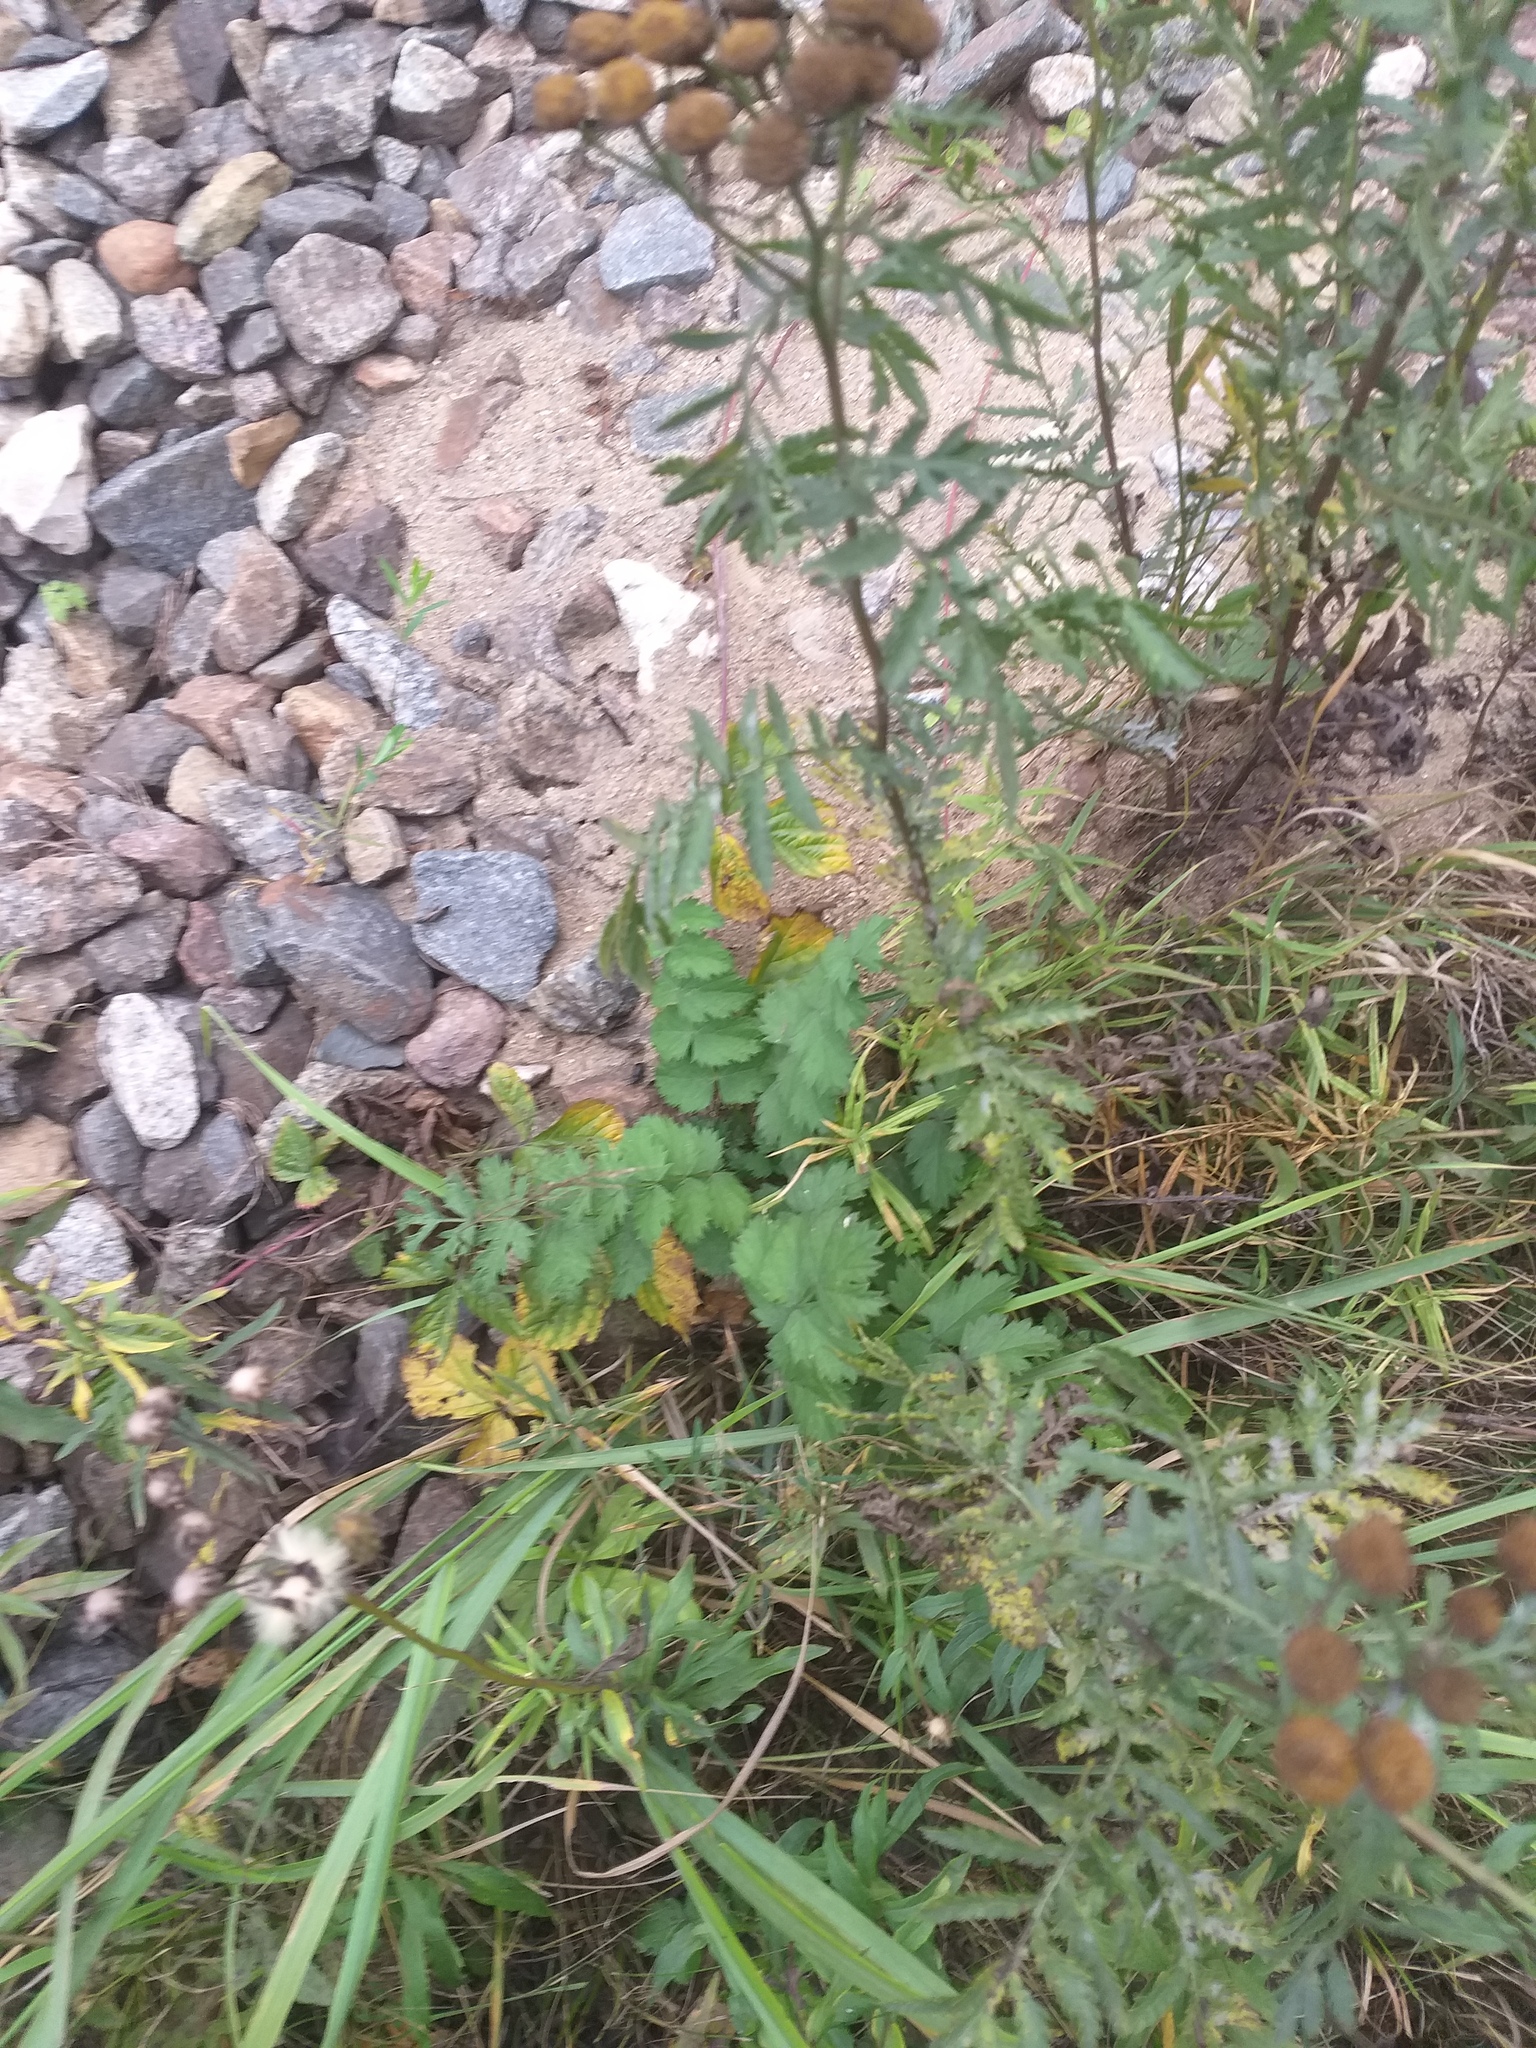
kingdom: Plantae
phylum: Tracheophyta
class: Magnoliopsida
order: Apiales
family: Apiaceae
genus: Pimpinella
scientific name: Pimpinella saxifraga
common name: Burnet-saxifrage
